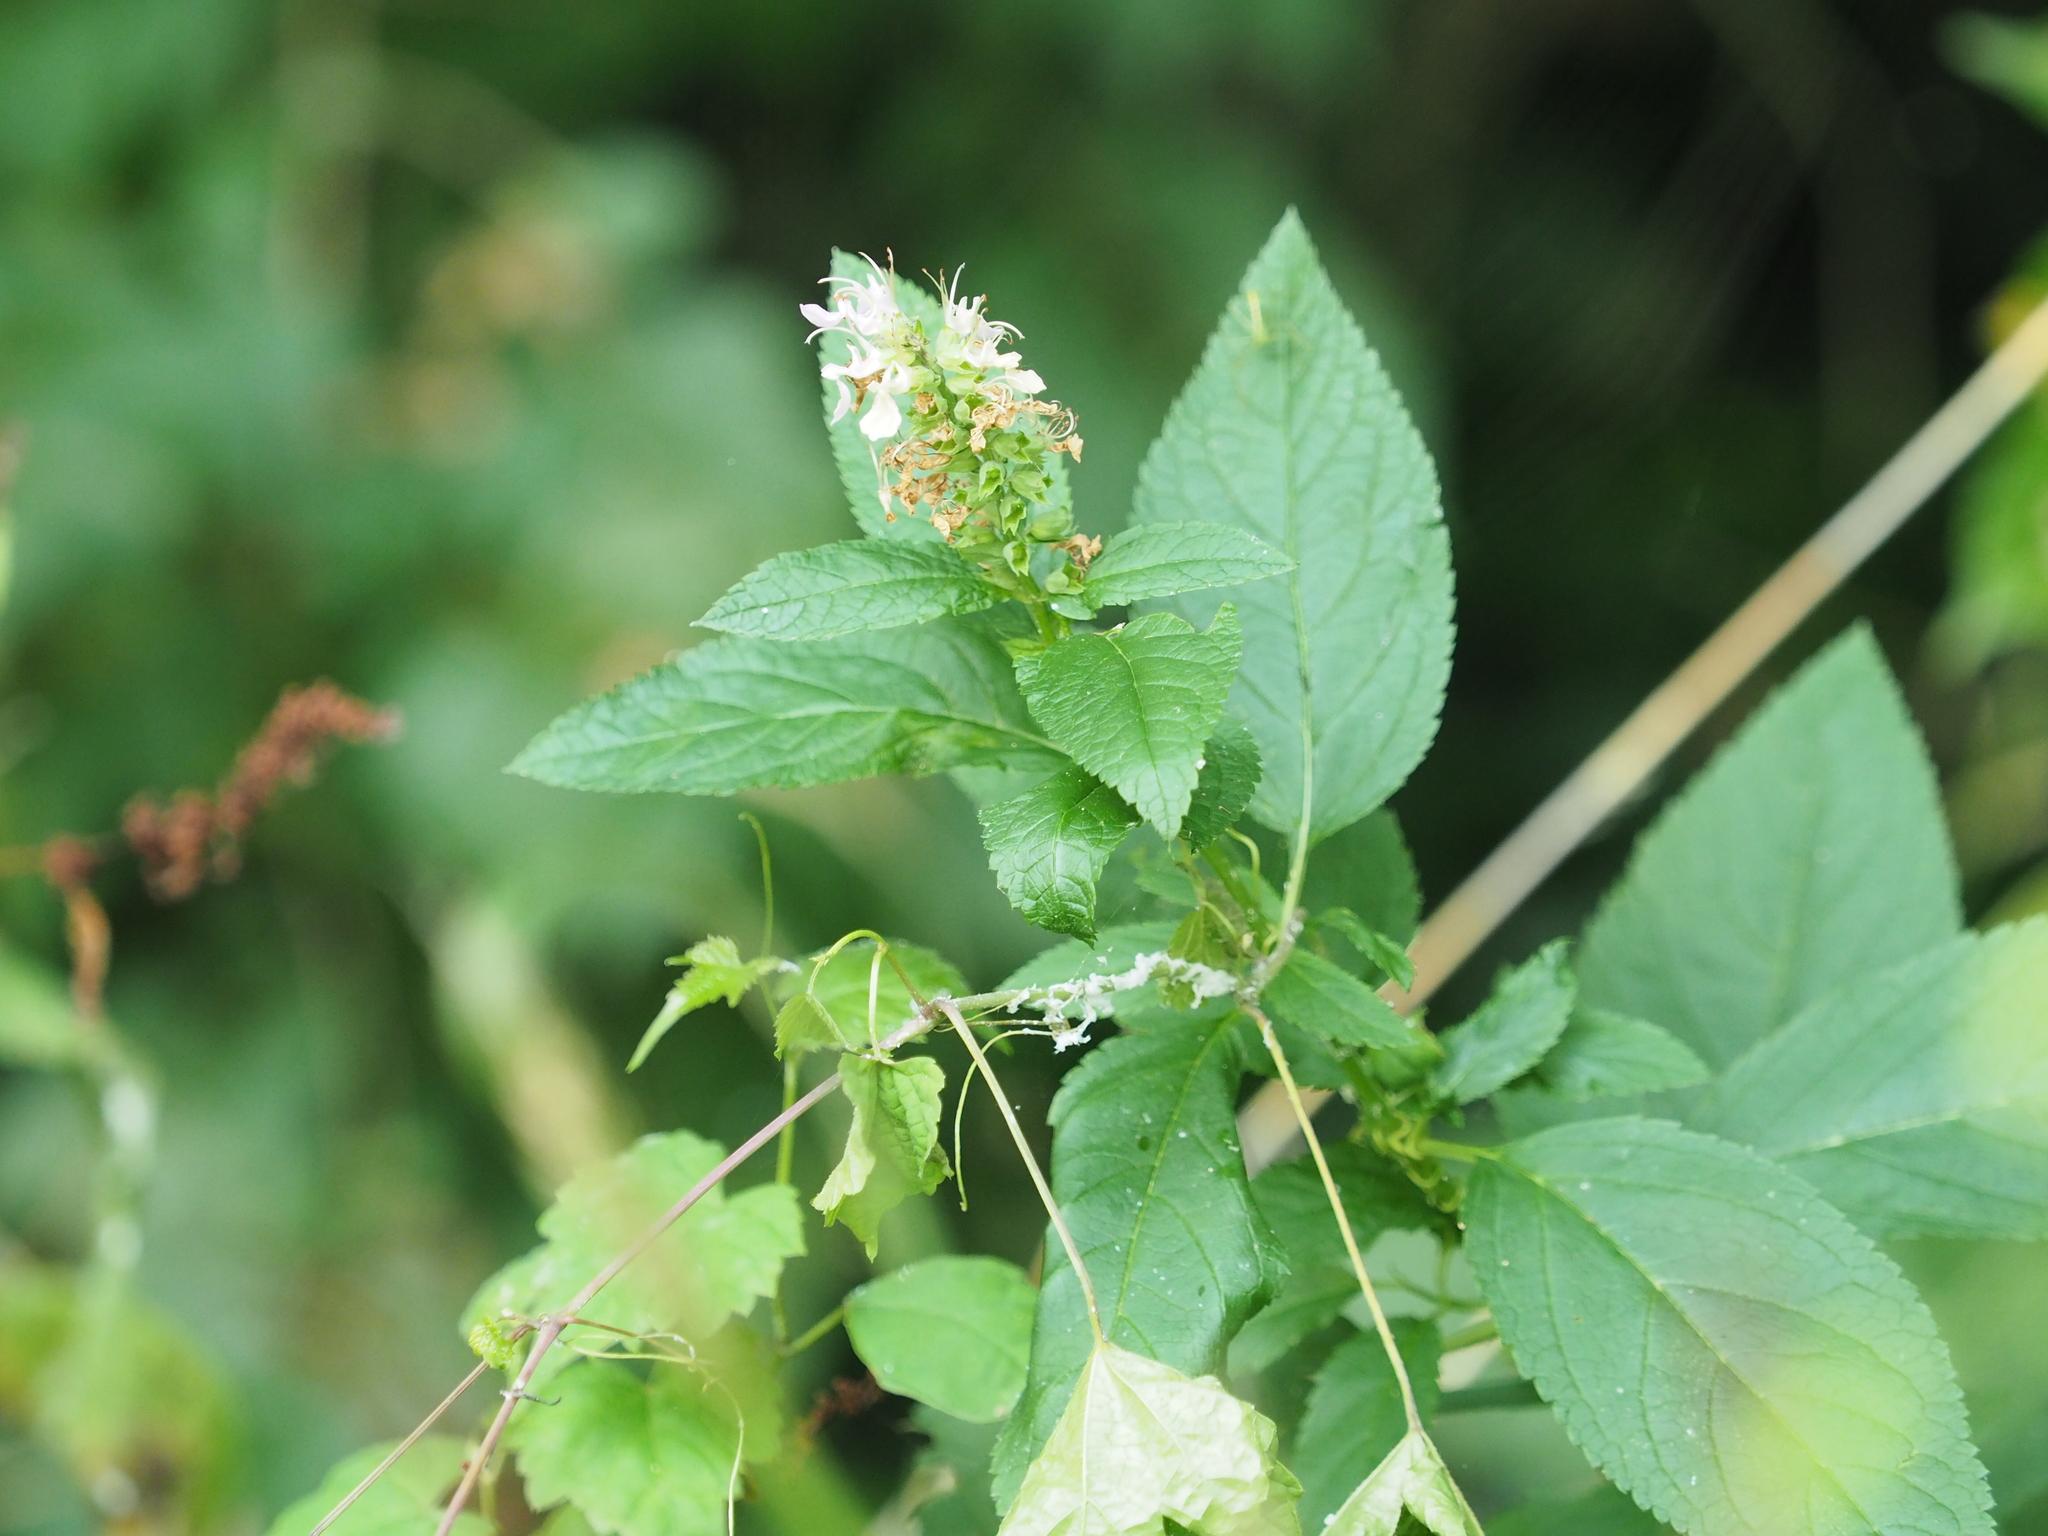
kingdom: Plantae
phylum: Tracheophyta
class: Magnoliopsida
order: Lamiales
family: Lamiaceae
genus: Teucrium
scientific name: Teucrium canadense
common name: American germander
